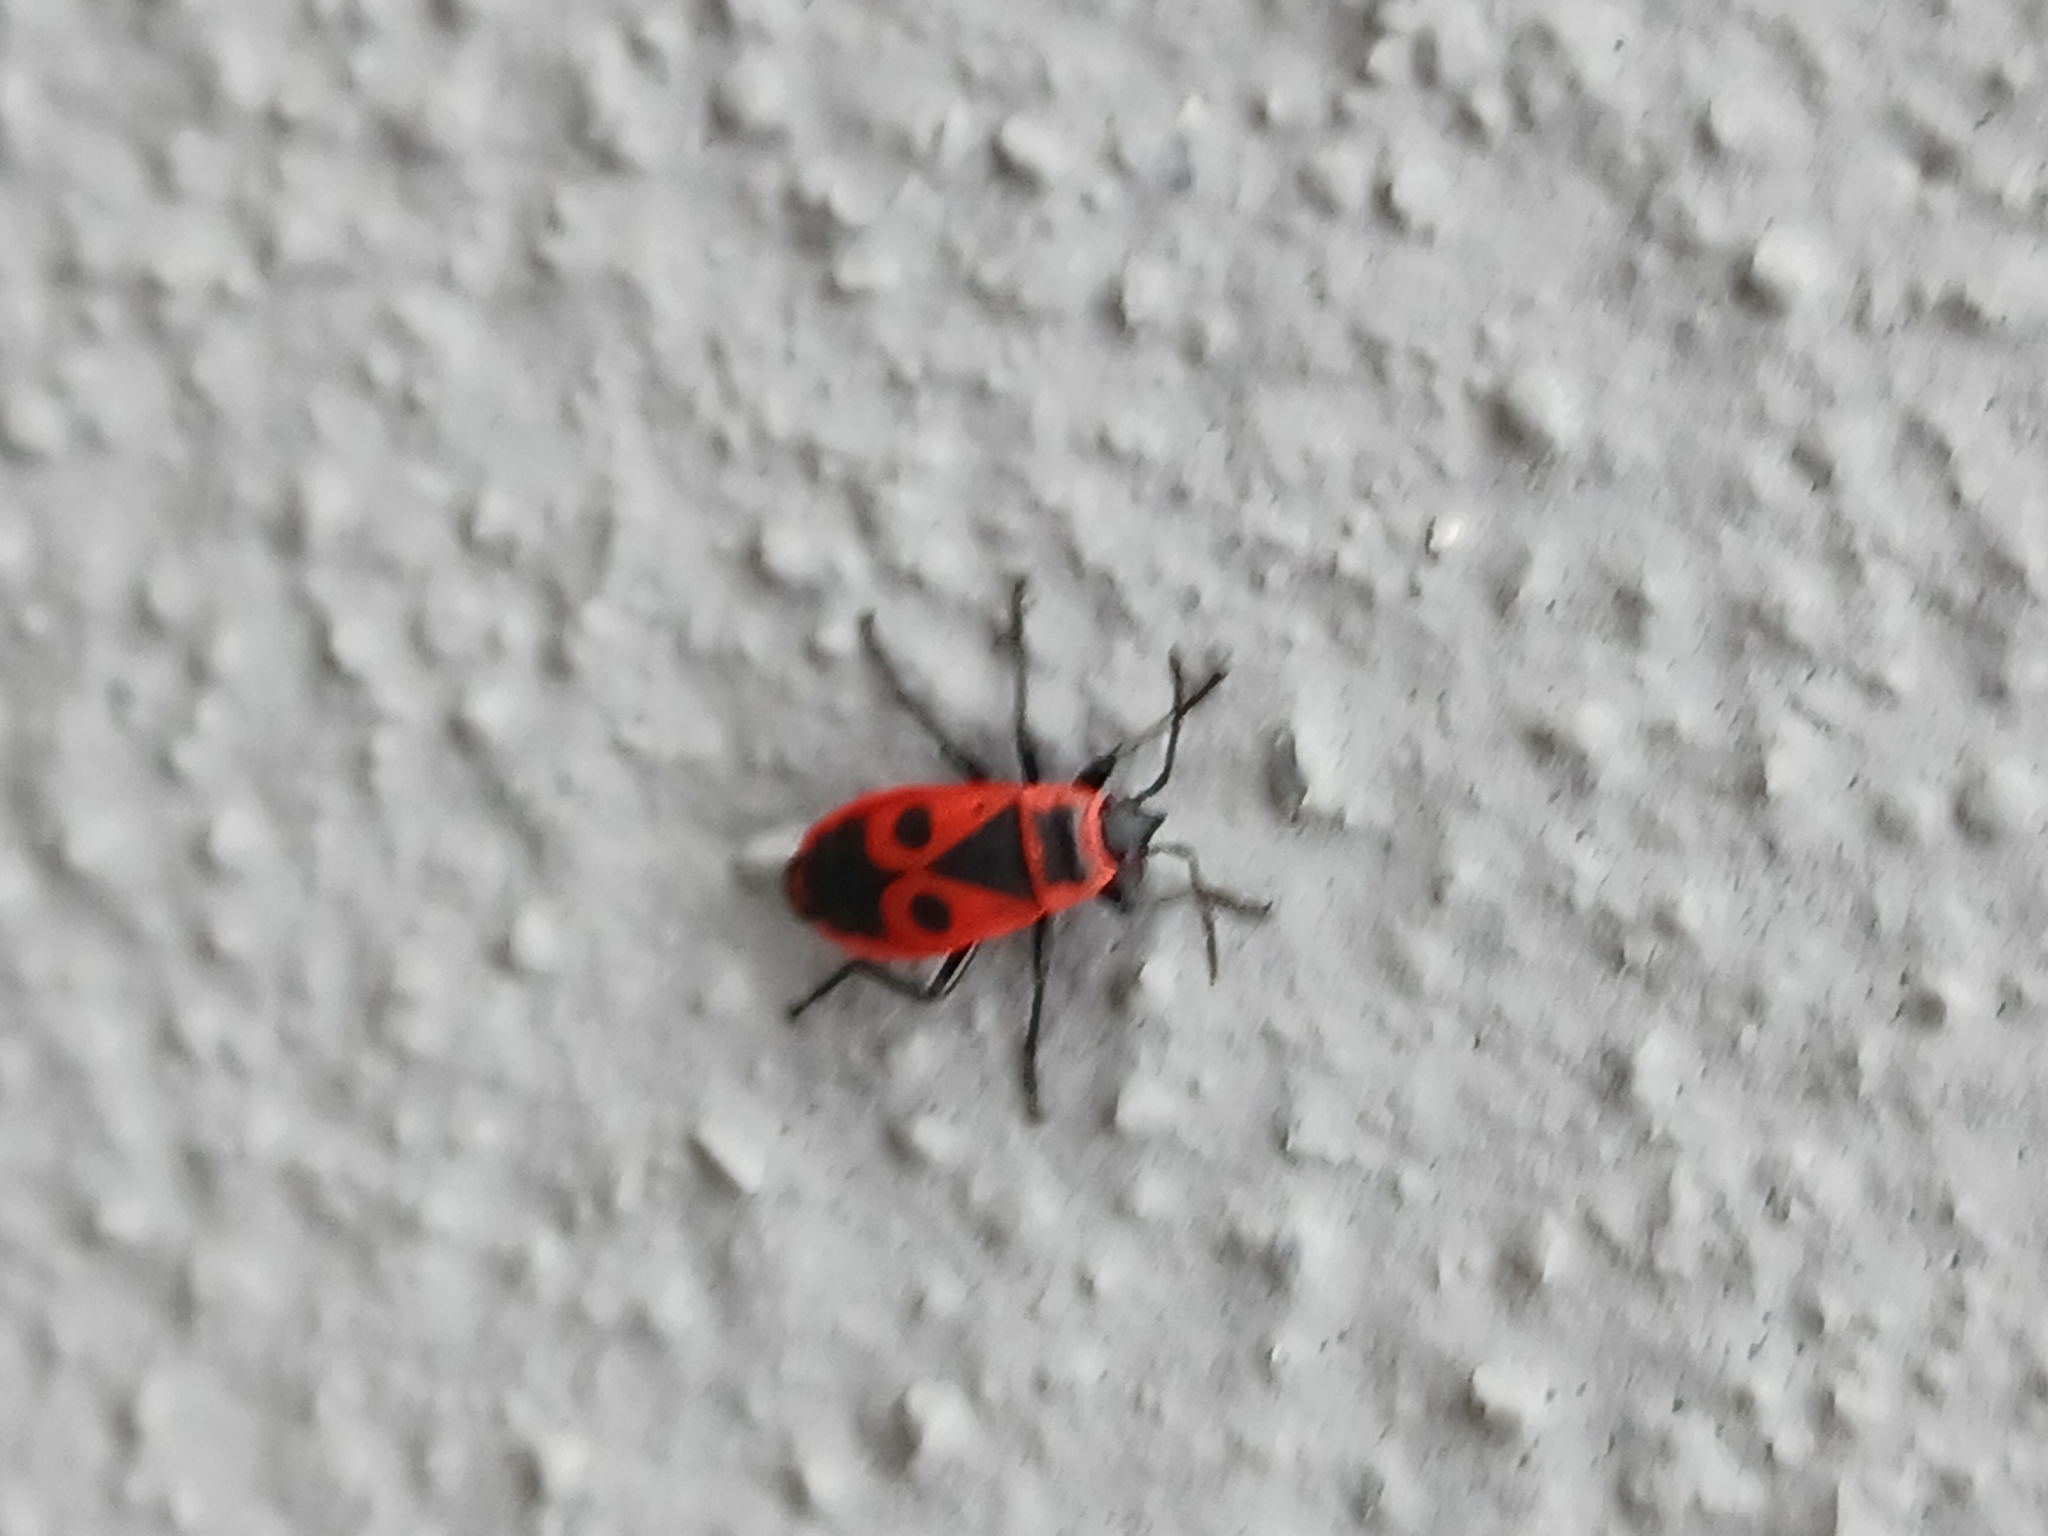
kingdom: Animalia
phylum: Arthropoda
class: Insecta
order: Hemiptera
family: Pyrrhocoridae
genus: Pyrrhocoris
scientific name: Pyrrhocoris apterus
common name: Firebug
